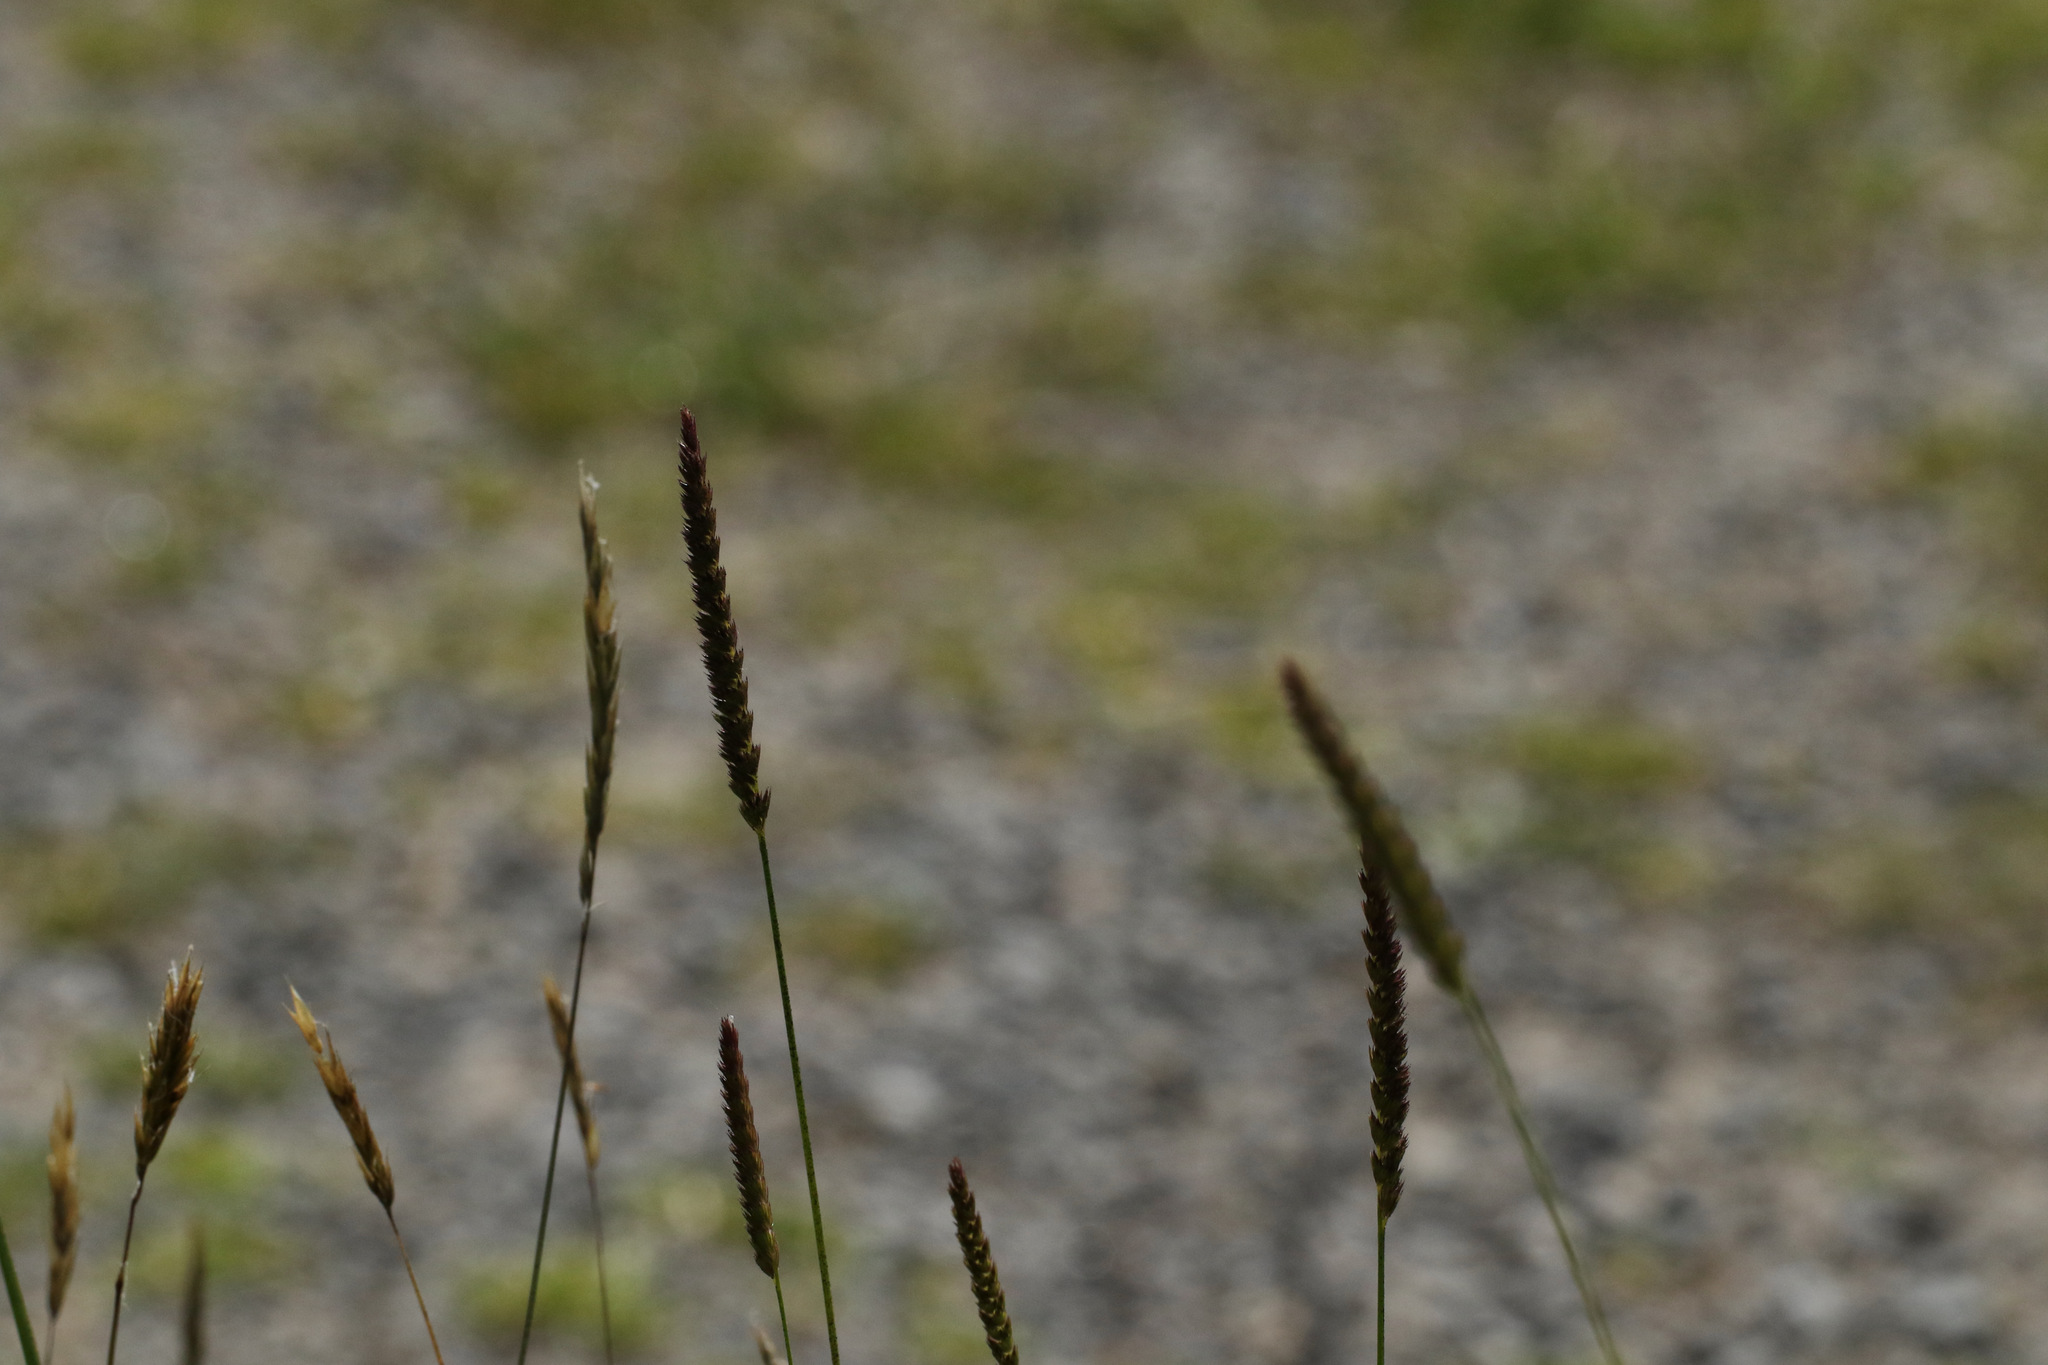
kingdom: Plantae
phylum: Tracheophyta
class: Liliopsida
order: Poales
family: Poaceae
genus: Cynosurus
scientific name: Cynosurus cristatus
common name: Crested dog's-tail
